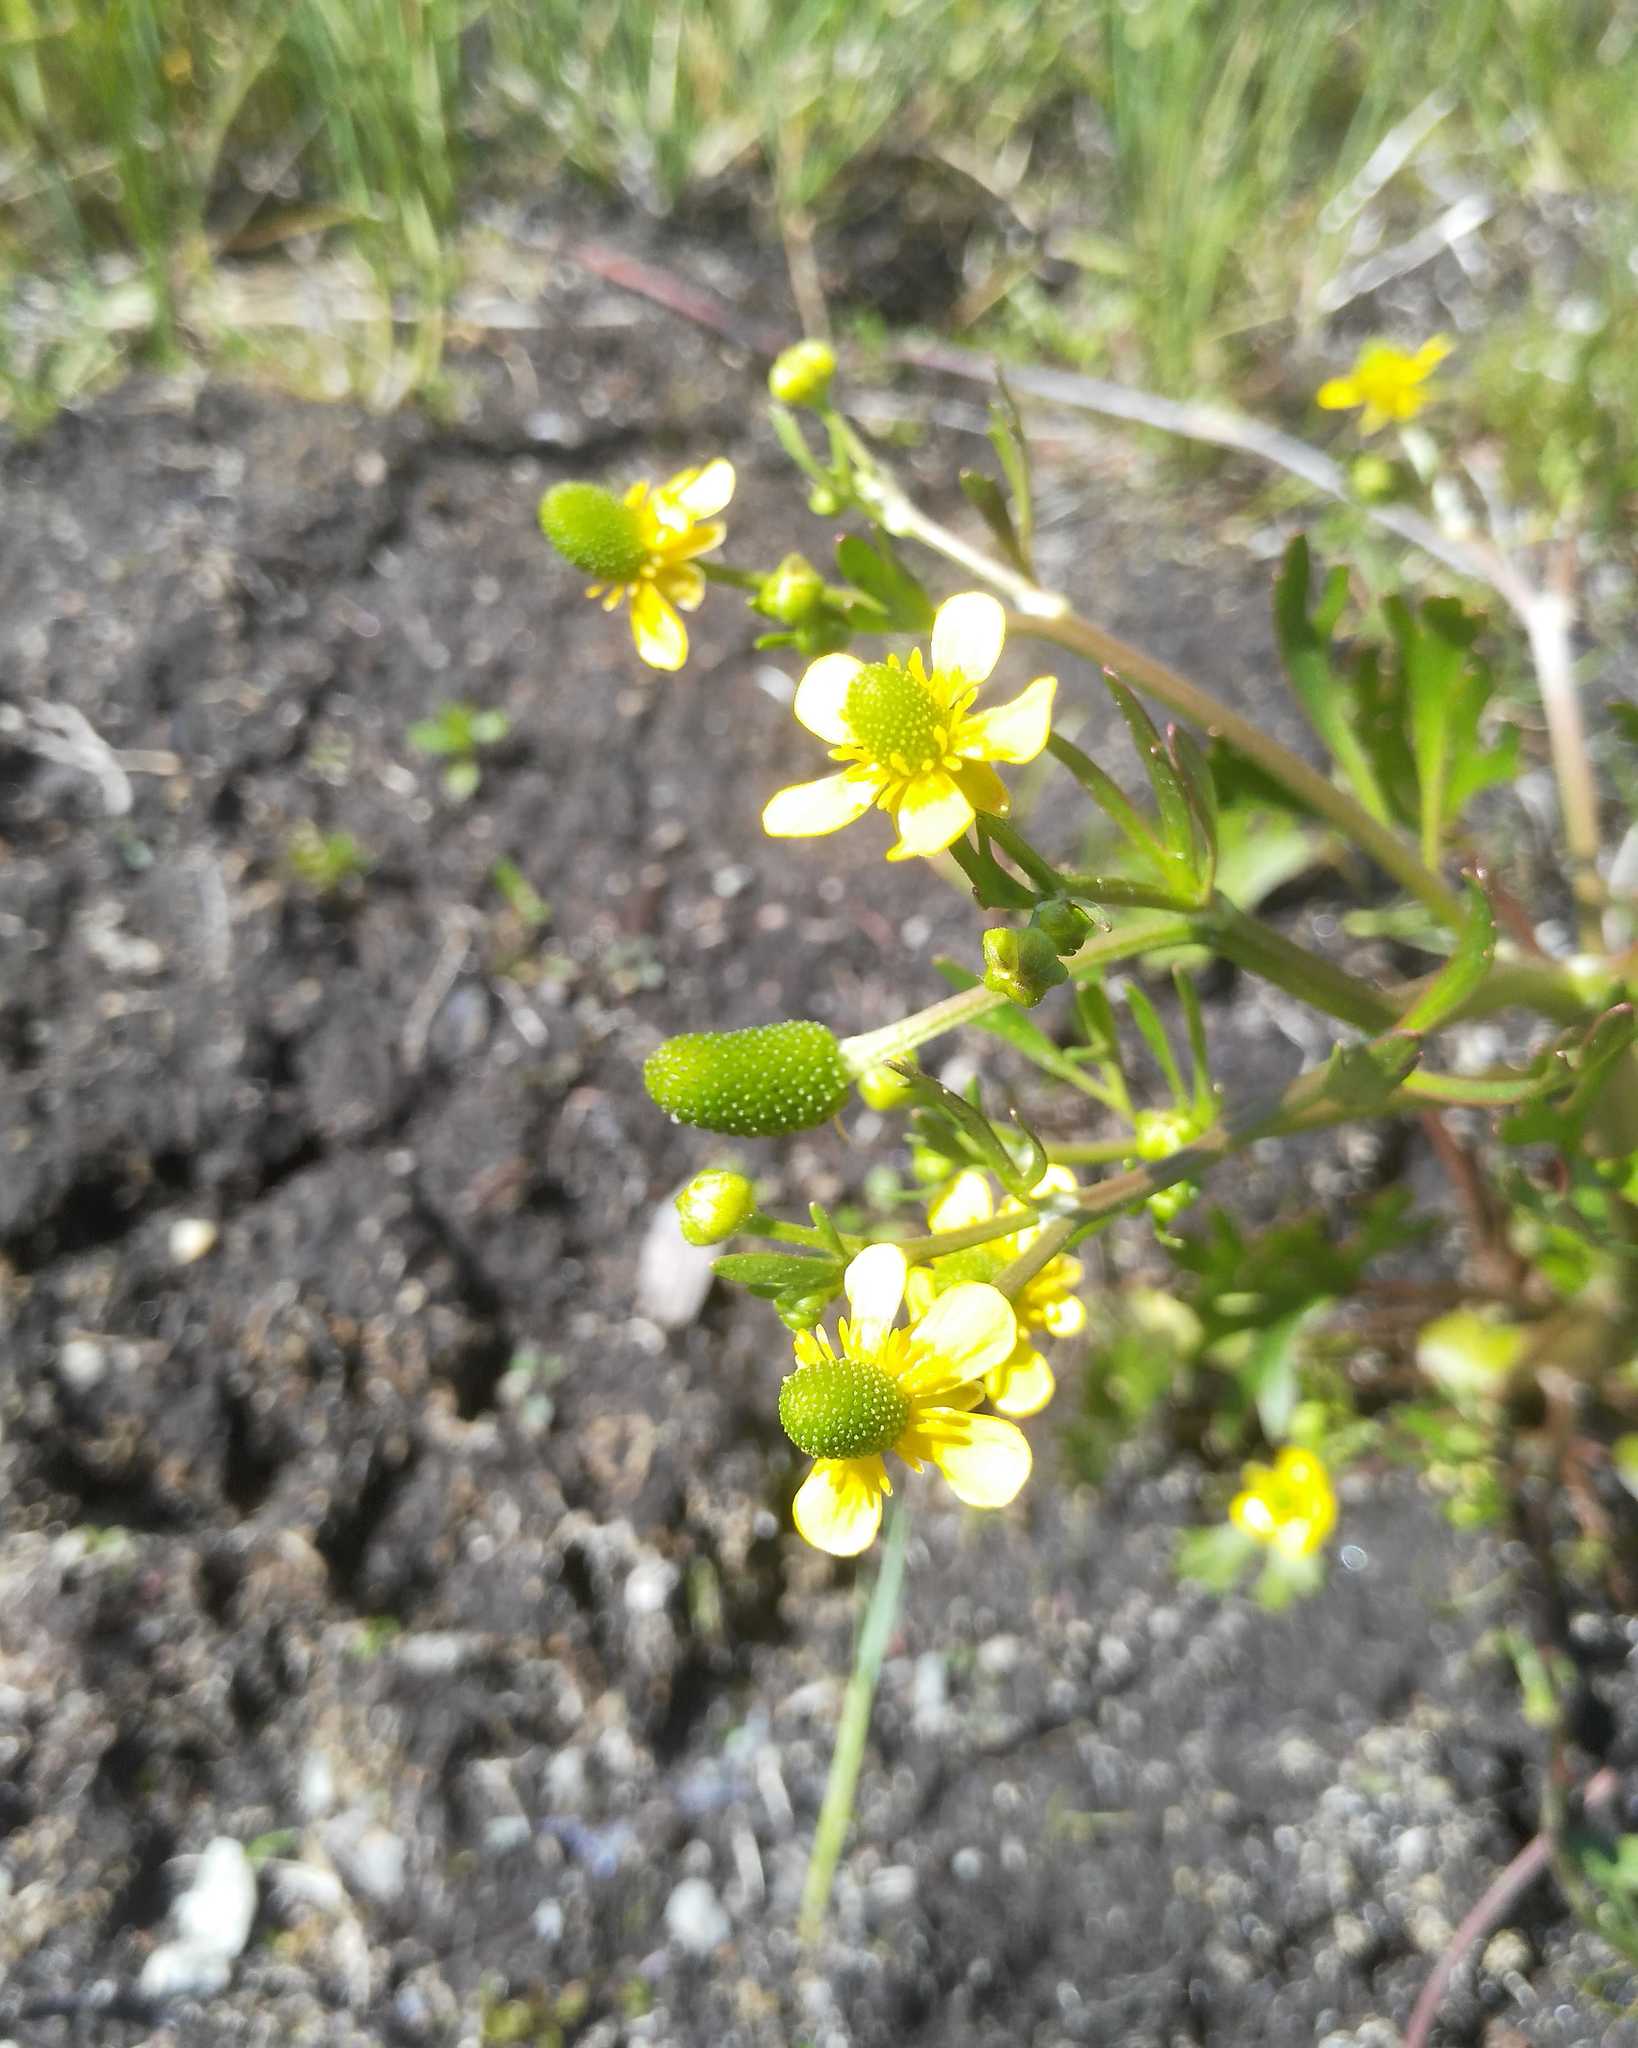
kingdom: Plantae
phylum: Tracheophyta
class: Magnoliopsida
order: Ranunculales
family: Ranunculaceae
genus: Ranunculus
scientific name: Ranunculus sceleratus
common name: Celery-leaved buttercup
